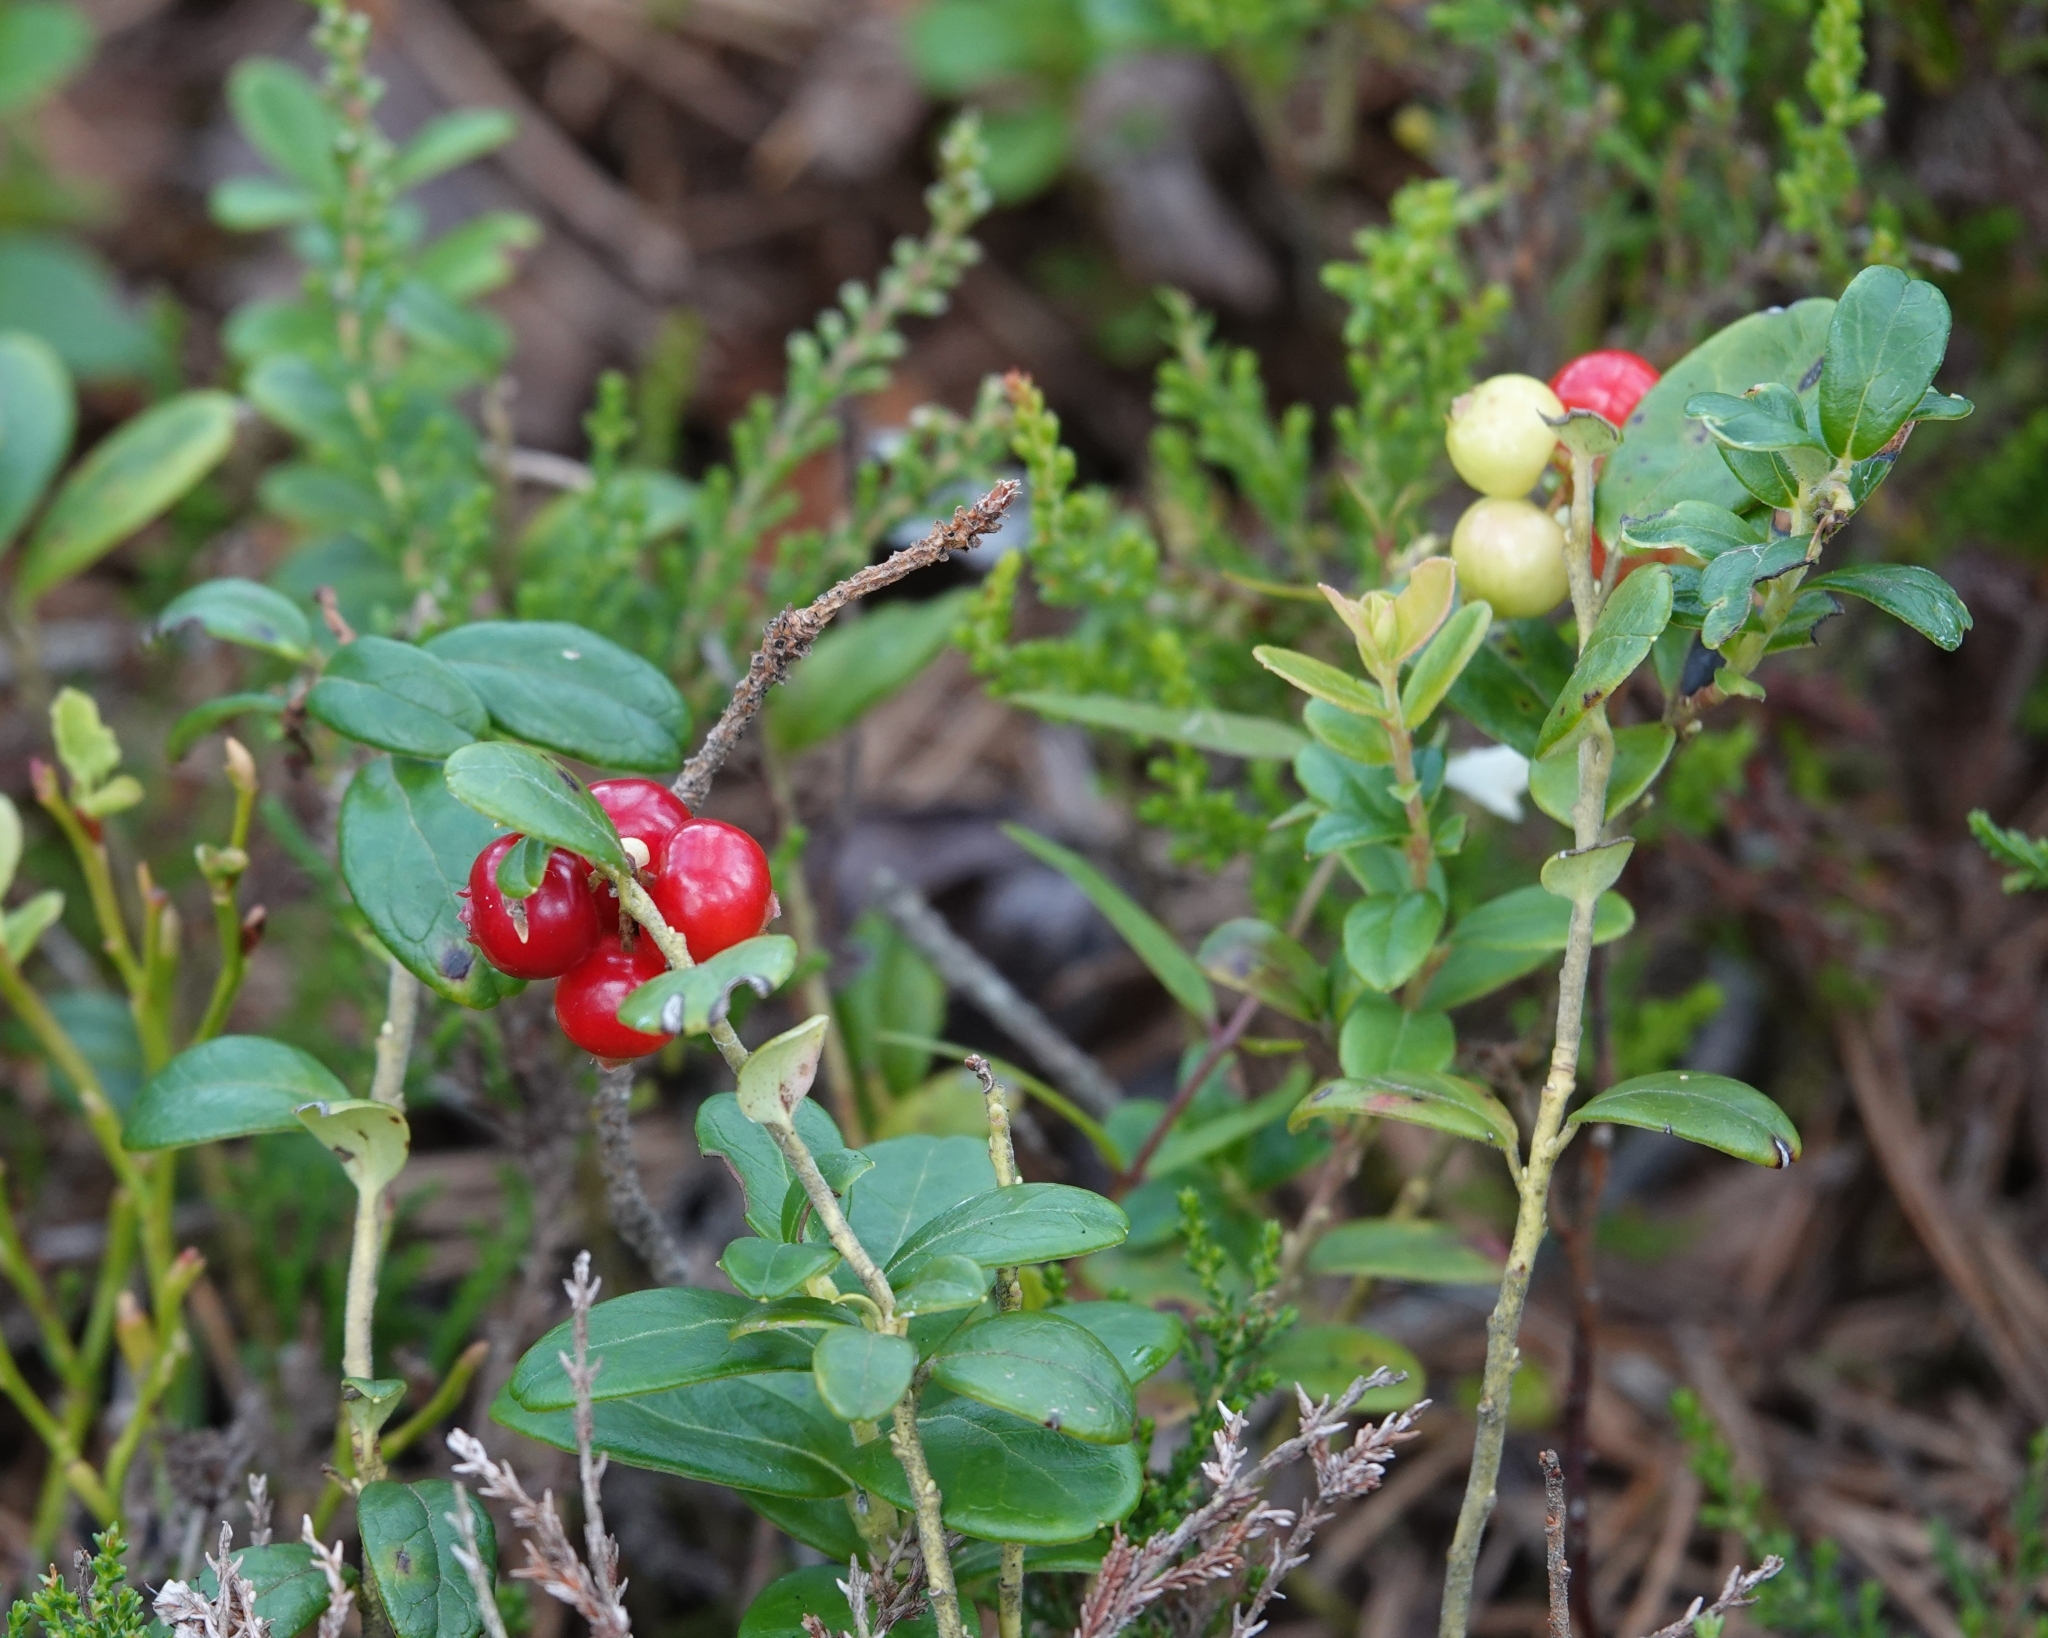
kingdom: Plantae
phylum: Tracheophyta
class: Magnoliopsida
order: Ericales
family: Ericaceae
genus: Vaccinium
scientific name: Vaccinium vitis-idaea
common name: Cowberry
